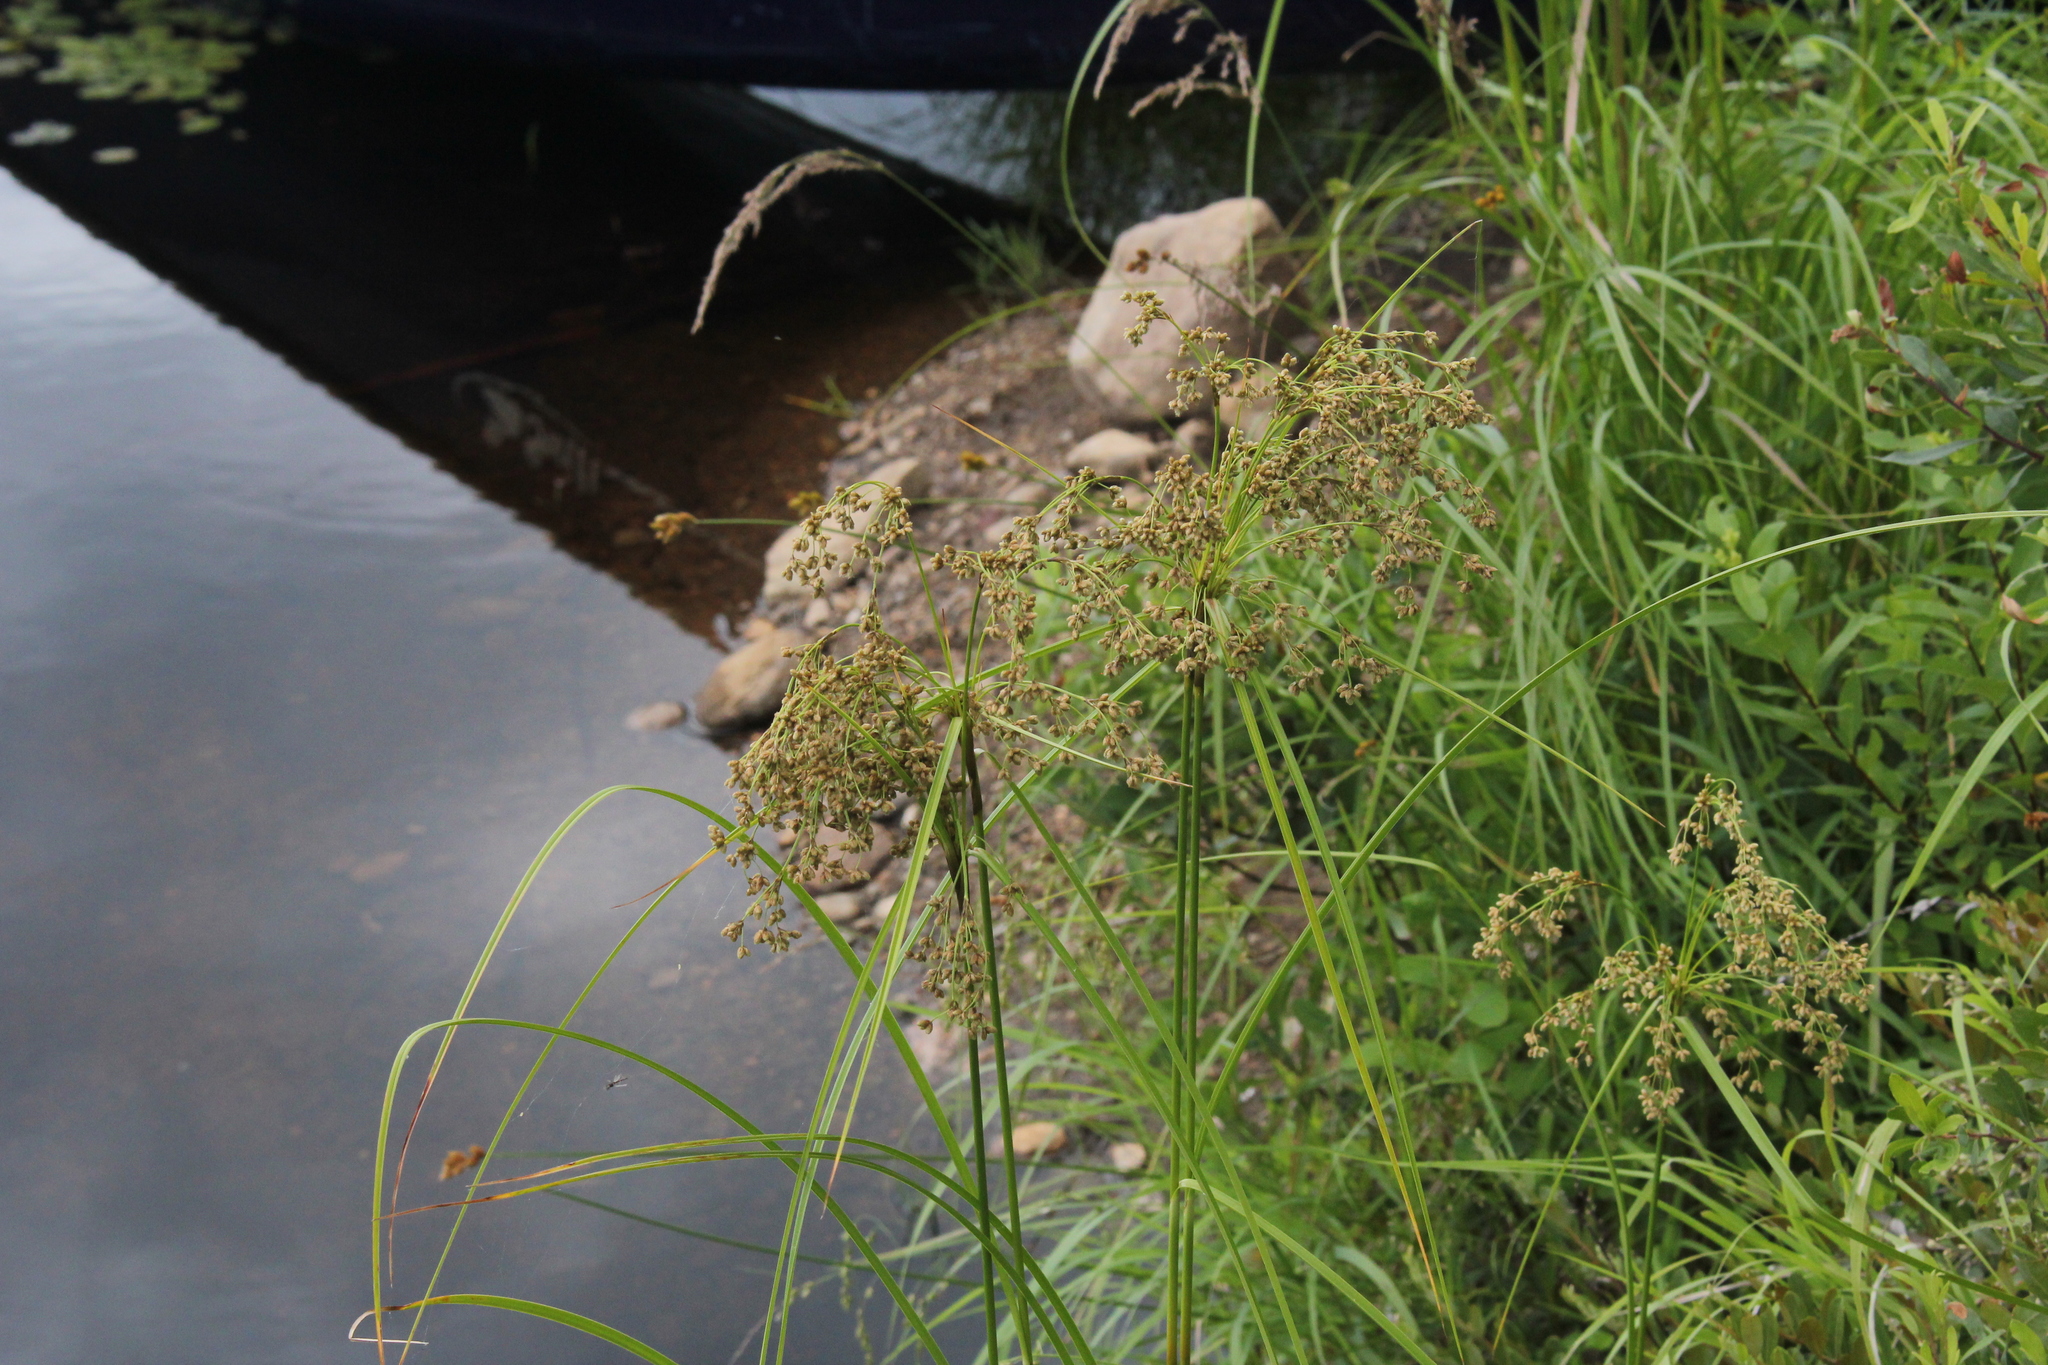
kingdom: Plantae
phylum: Tracheophyta
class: Liliopsida
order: Poales
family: Cyperaceae
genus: Scirpus
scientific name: Scirpus cyperinus
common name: Black-sheathed bulrush
